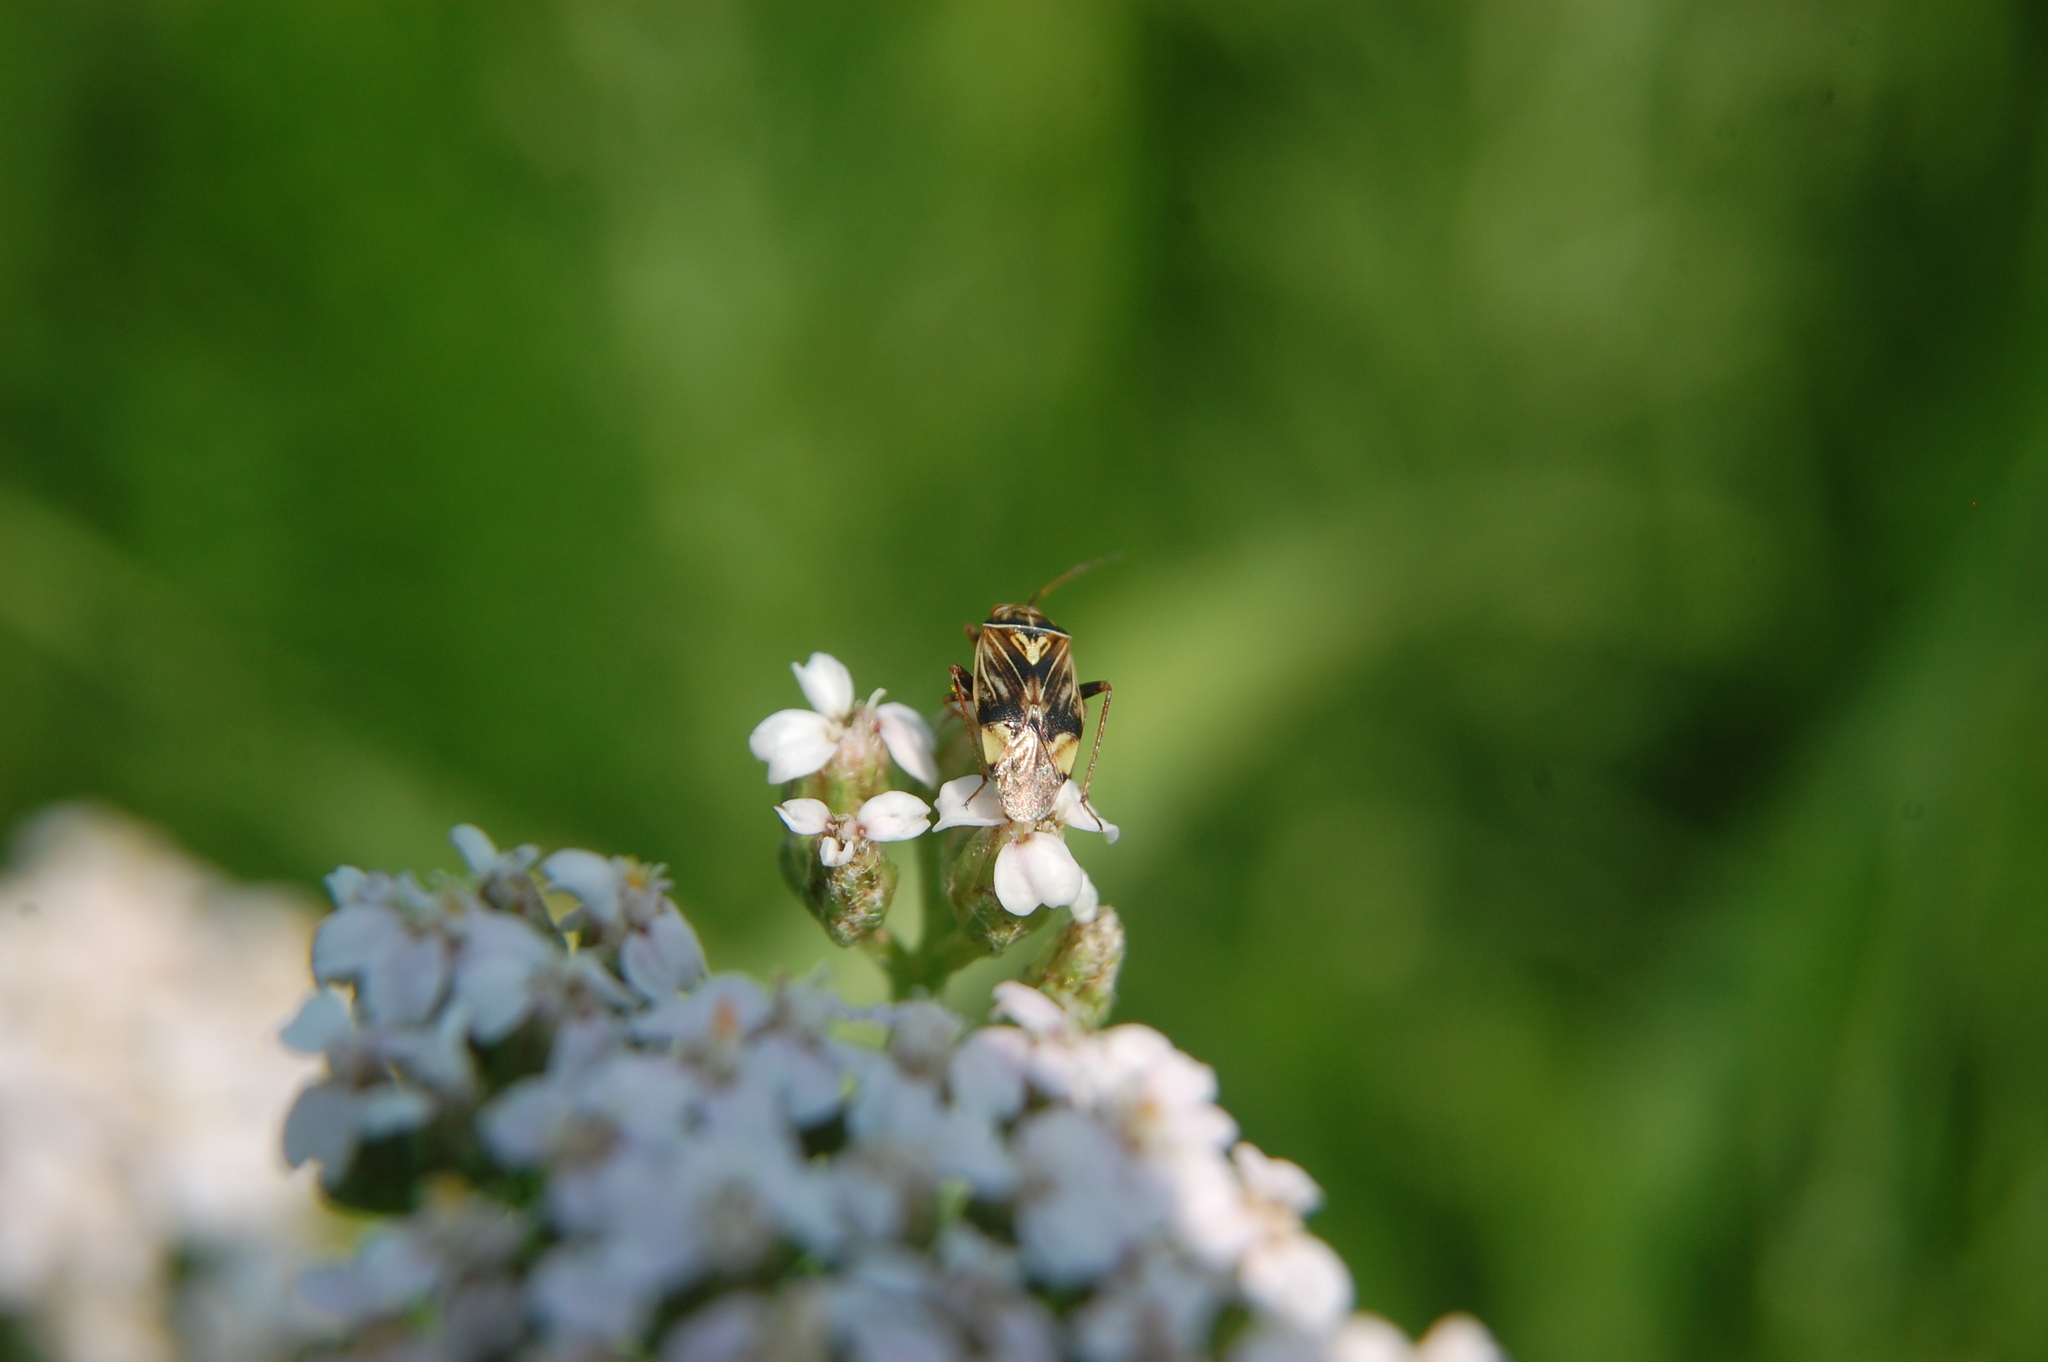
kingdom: Animalia
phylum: Arthropoda
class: Insecta
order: Hemiptera
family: Miridae
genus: Lygus
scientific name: Lygus lineolaris
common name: North american tarnished plant bug
